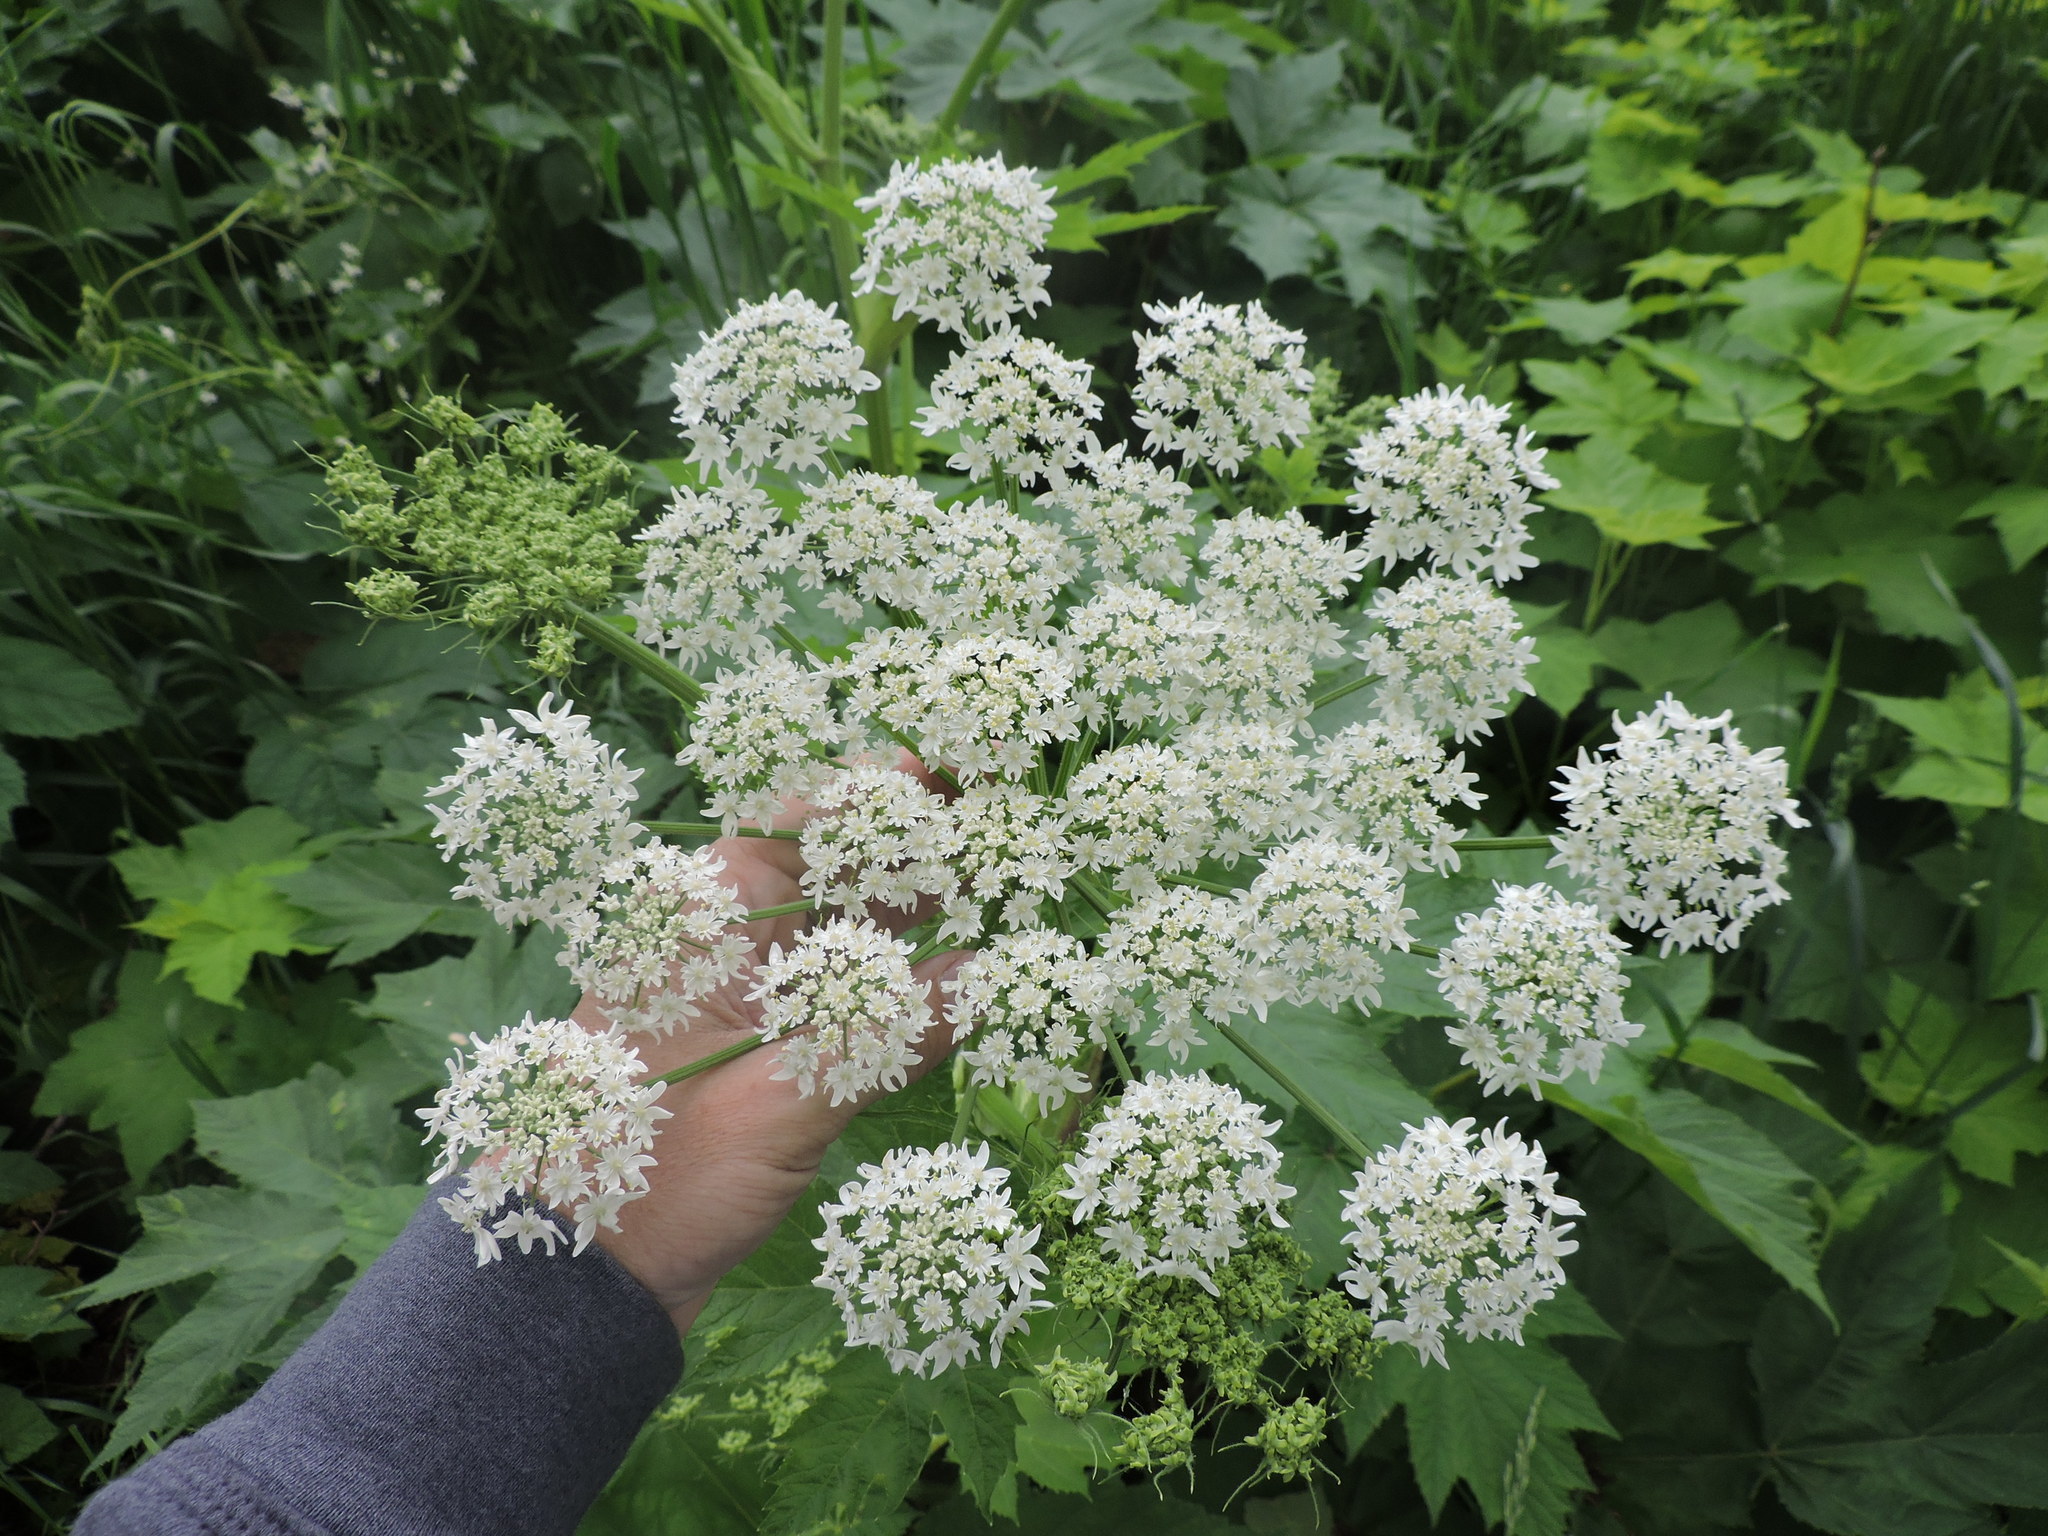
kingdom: Plantae
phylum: Tracheophyta
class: Magnoliopsida
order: Apiales
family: Apiaceae
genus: Heracleum
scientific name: Heracleum maximum
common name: American cow parsnip
